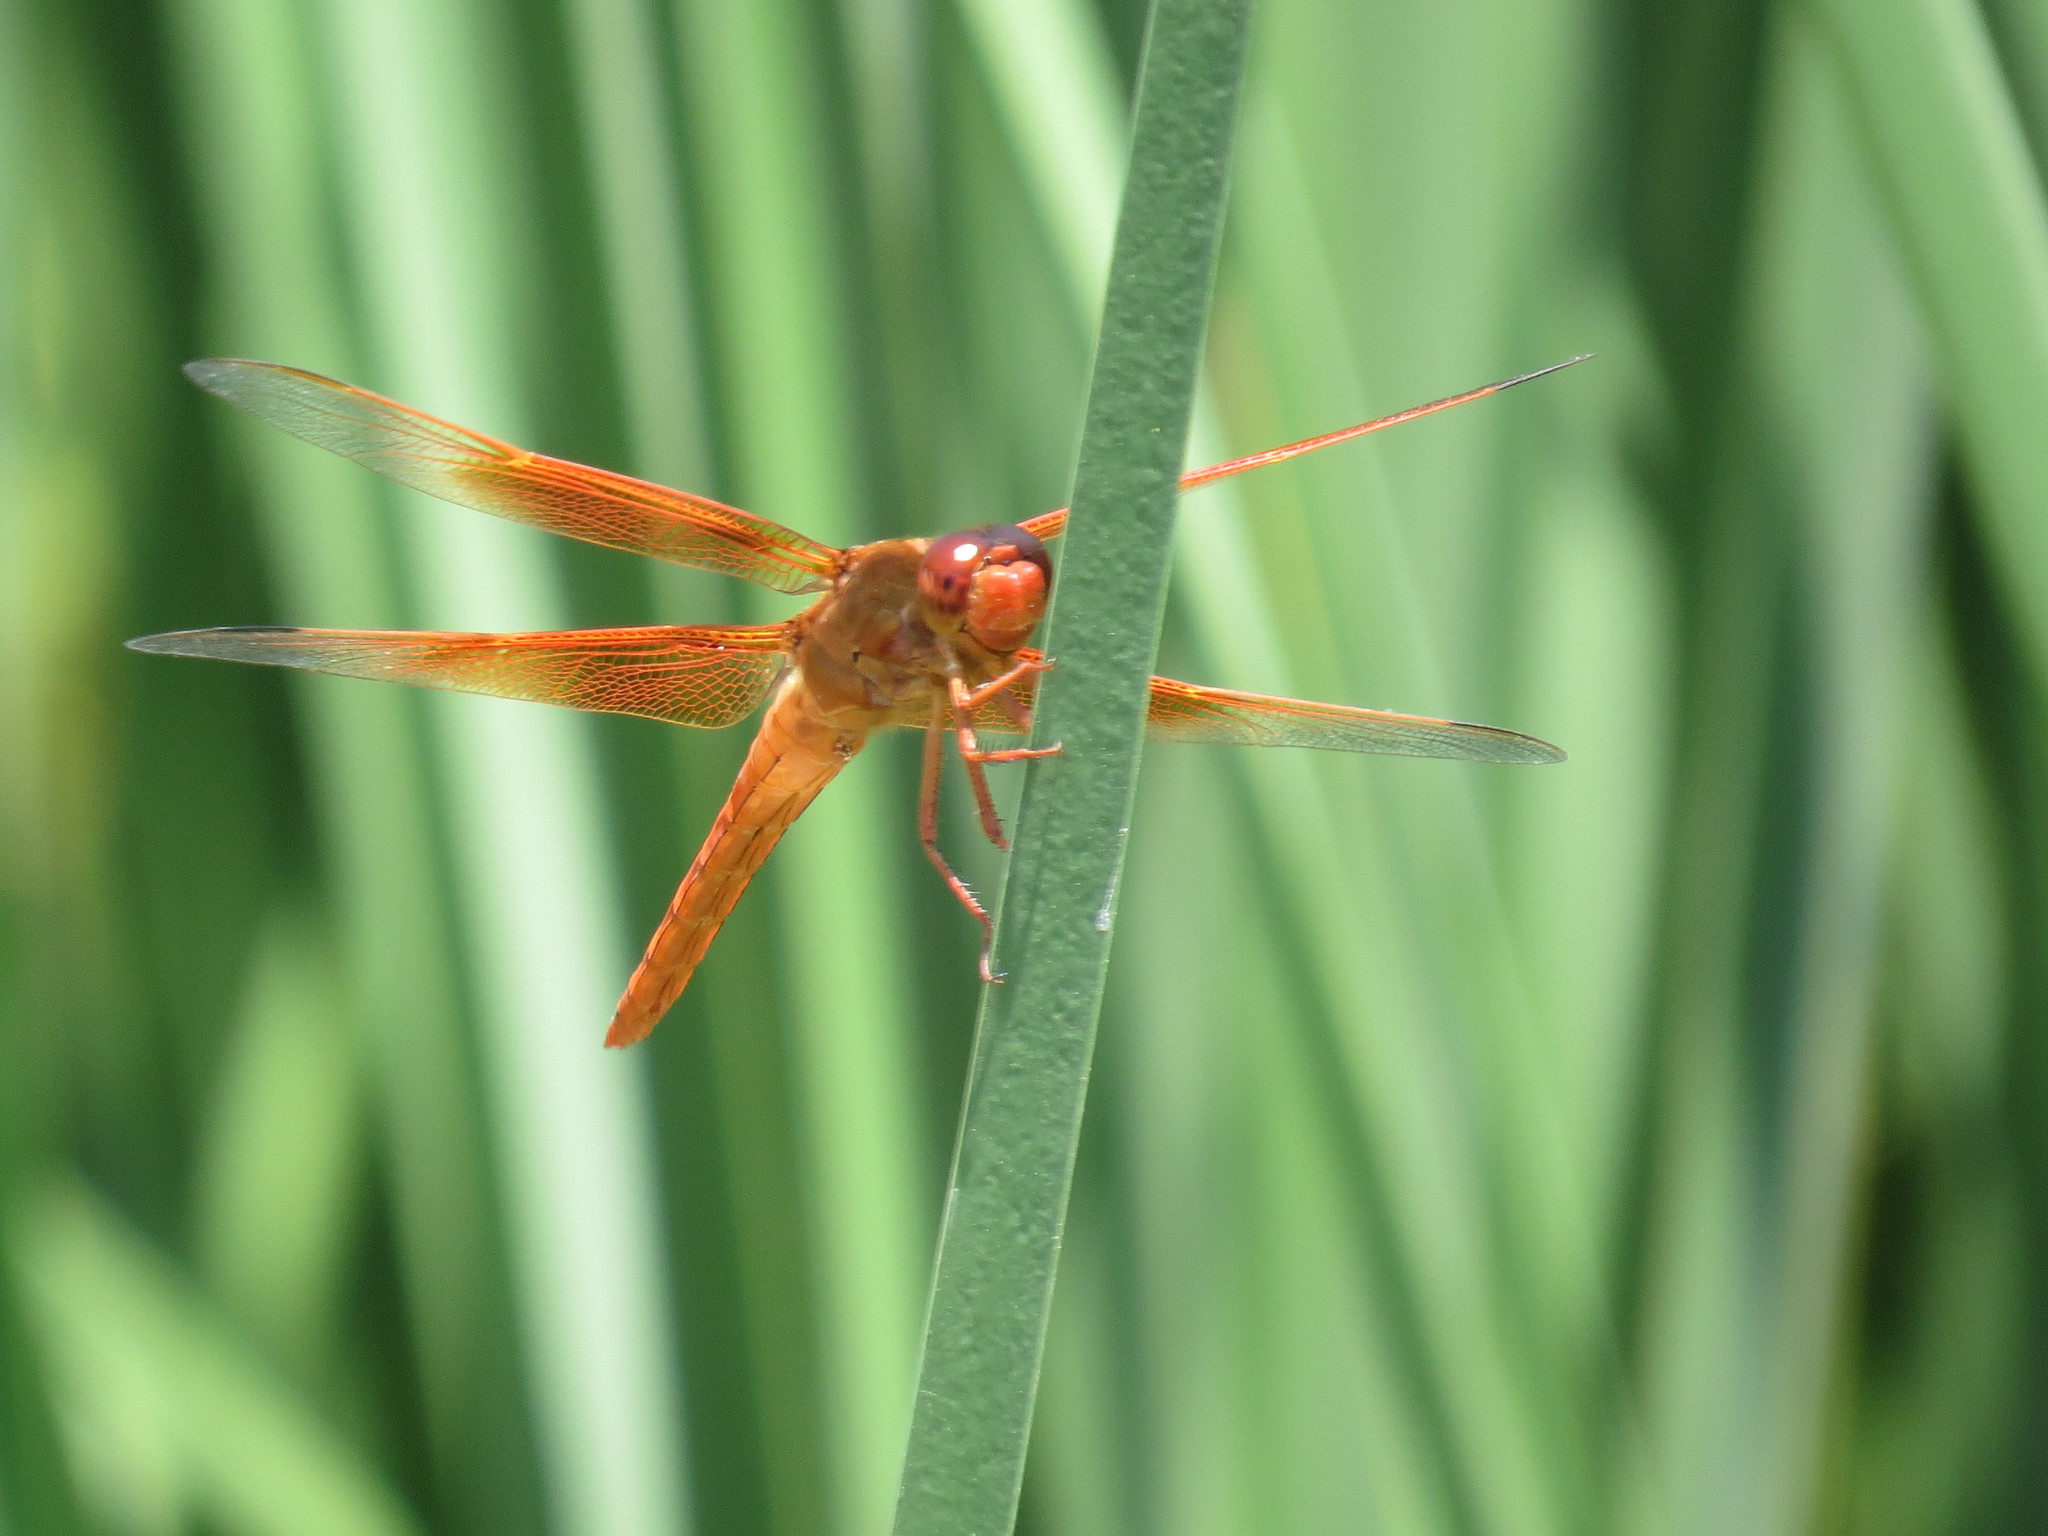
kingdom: Animalia
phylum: Arthropoda
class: Insecta
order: Odonata
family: Libellulidae
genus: Libellula
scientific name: Libellula saturata
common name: Flame skimmer
